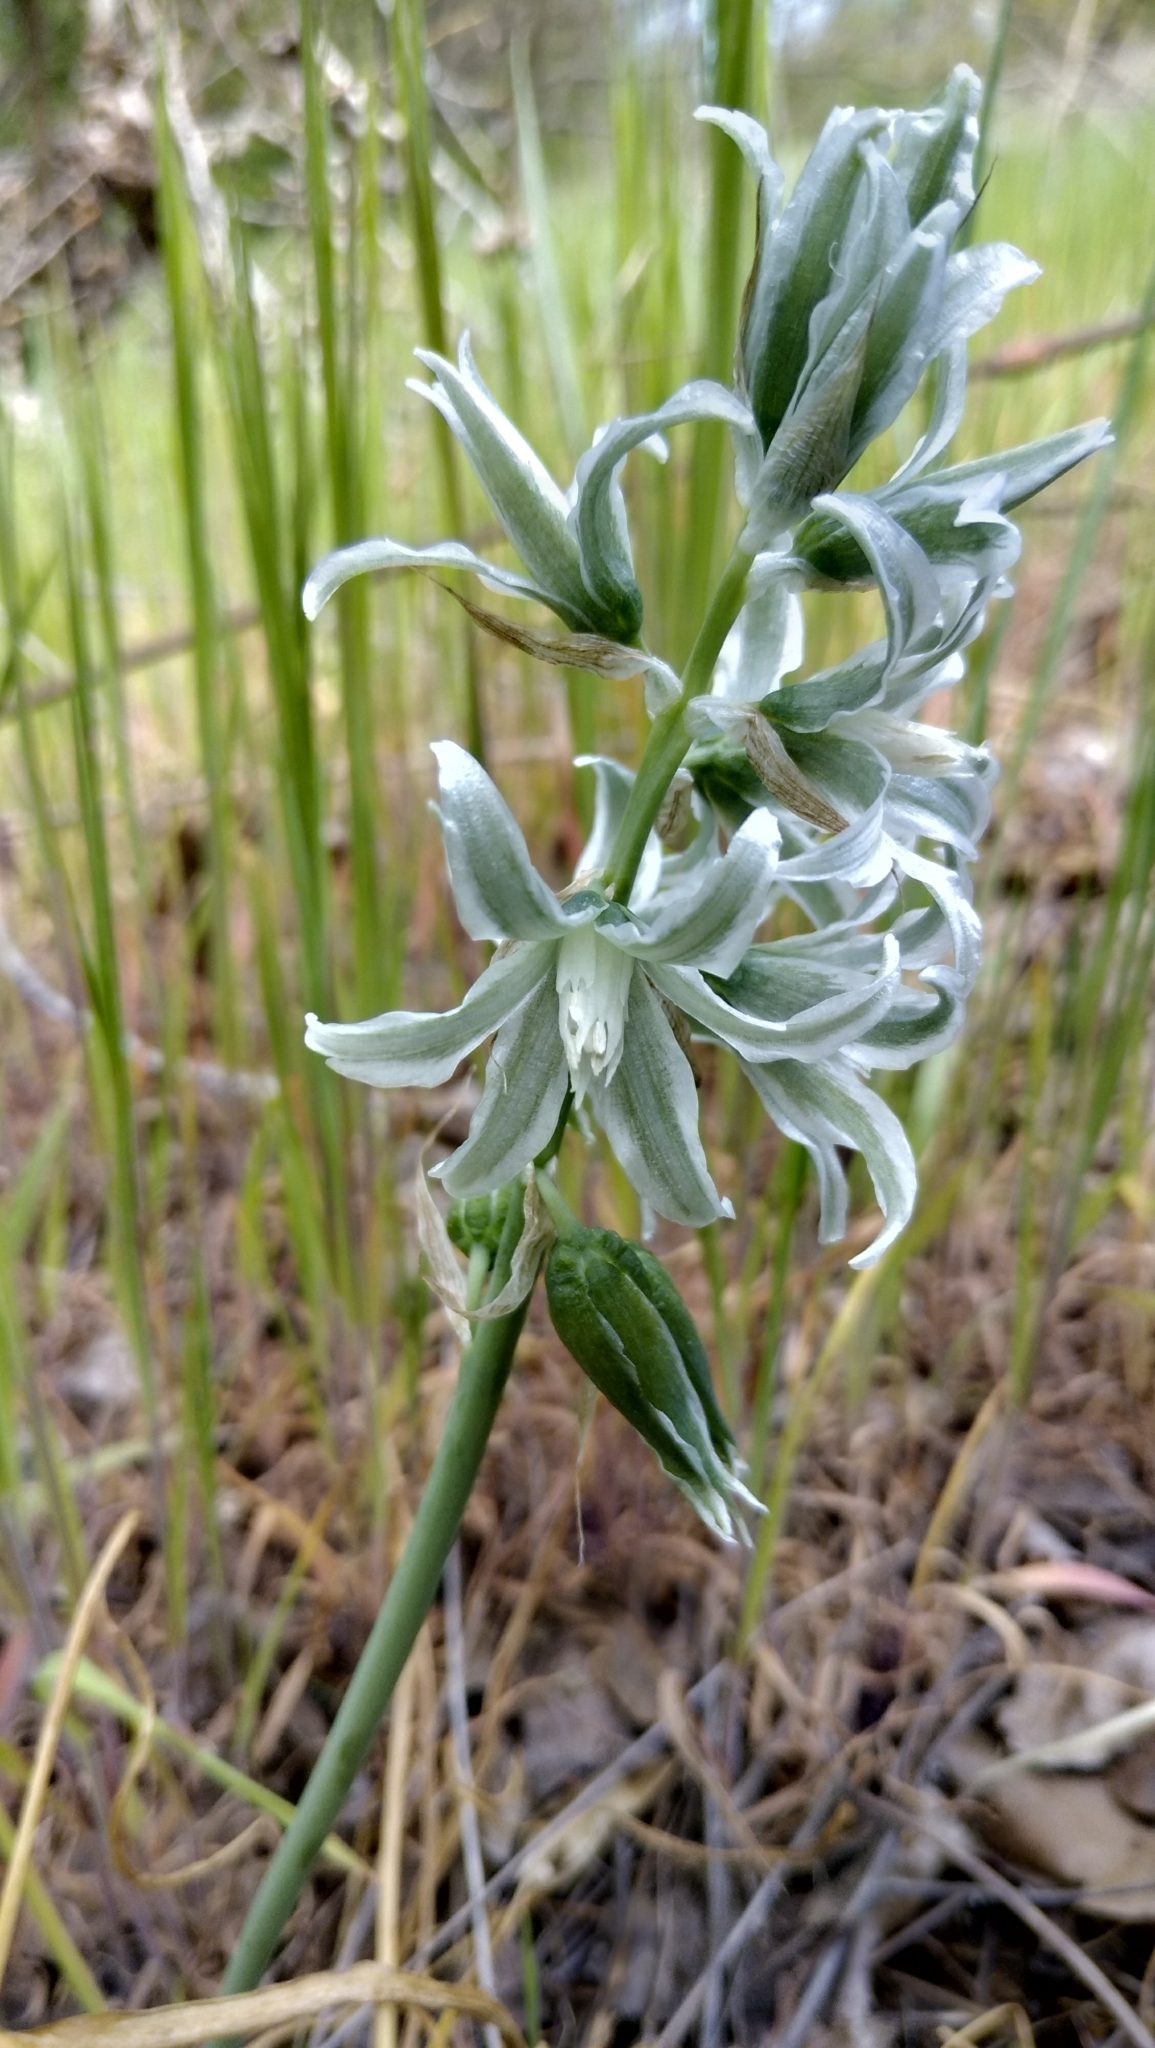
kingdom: Plantae
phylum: Tracheophyta
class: Liliopsida
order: Asparagales
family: Asparagaceae
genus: Ornithogalum
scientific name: Ornithogalum boucheanum
